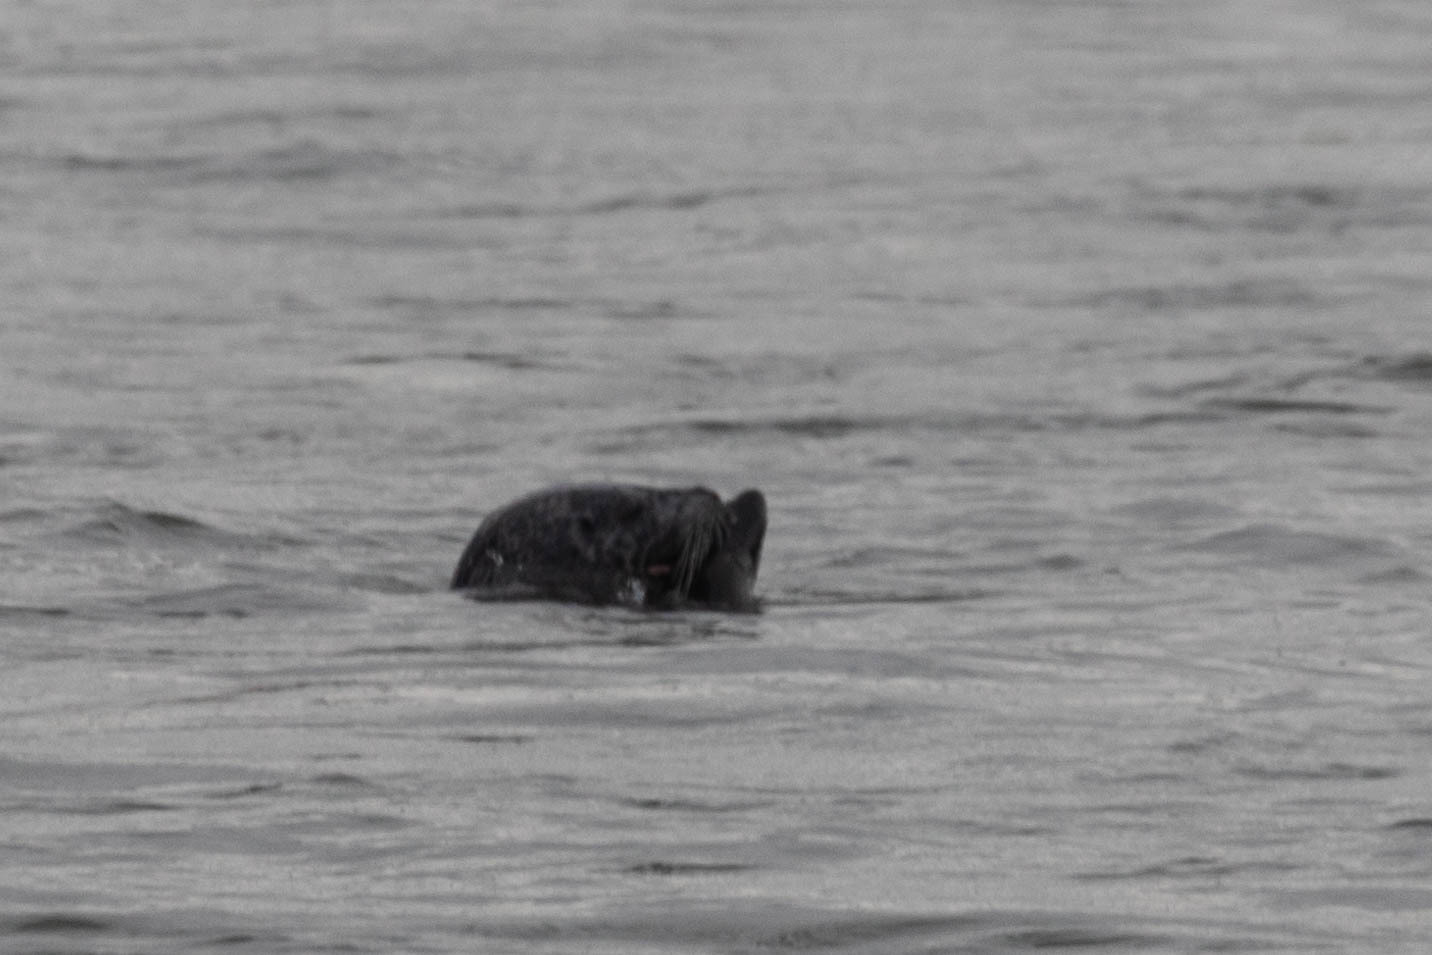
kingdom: Animalia
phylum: Chordata
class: Mammalia
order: Carnivora
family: Phocidae
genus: Phoca
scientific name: Phoca vitulina
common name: Harbor seal
